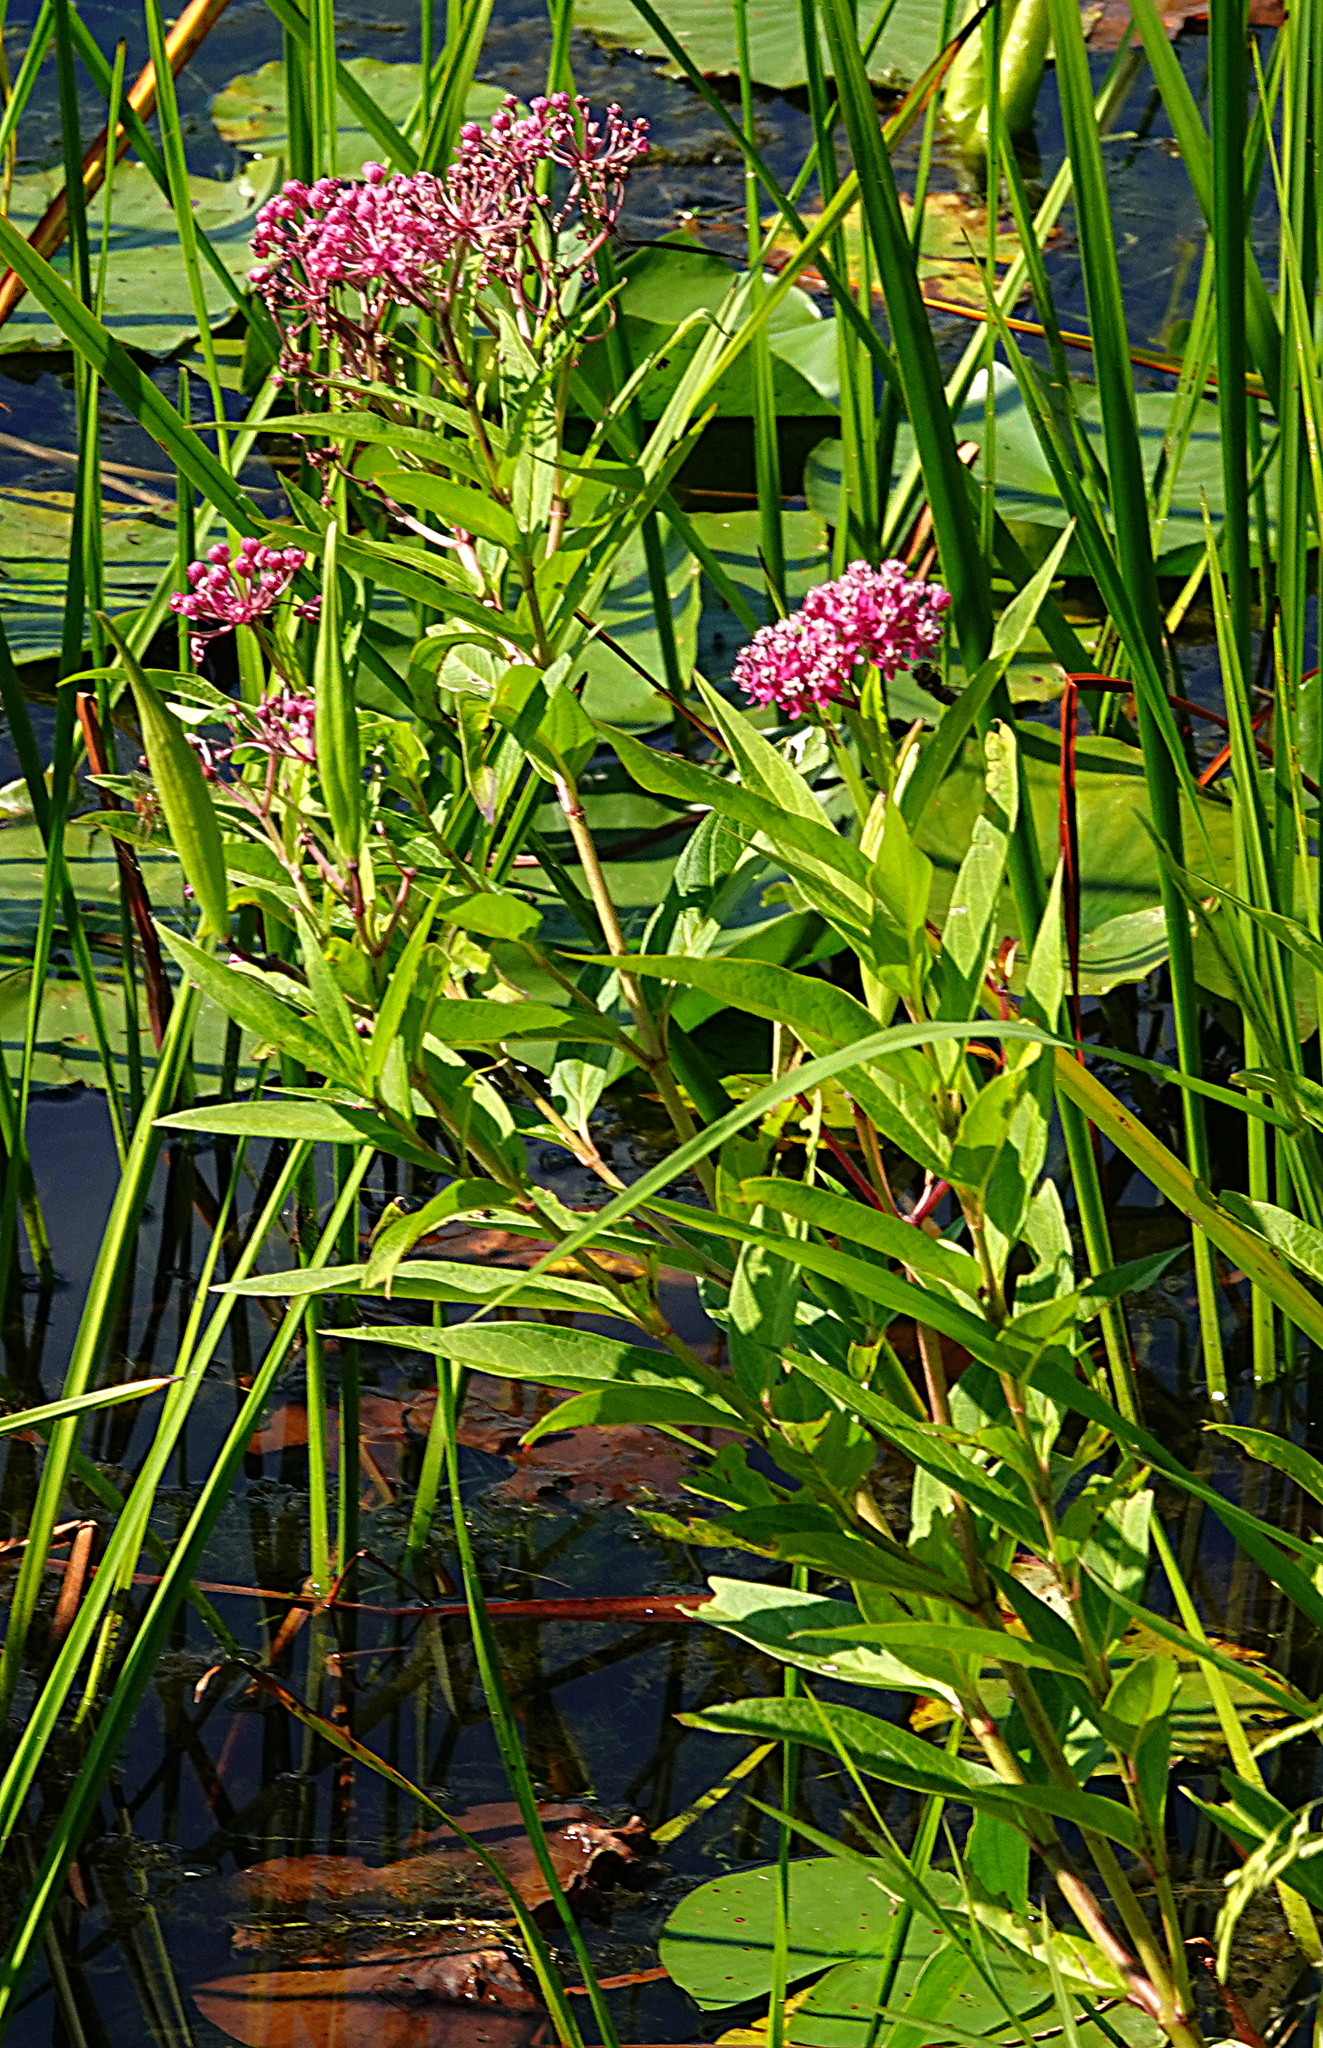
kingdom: Plantae
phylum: Tracheophyta
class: Magnoliopsida
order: Gentianales
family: Apocynaceae
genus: Asclepias
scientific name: Asclepias incarnata
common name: Swamp milkweed
